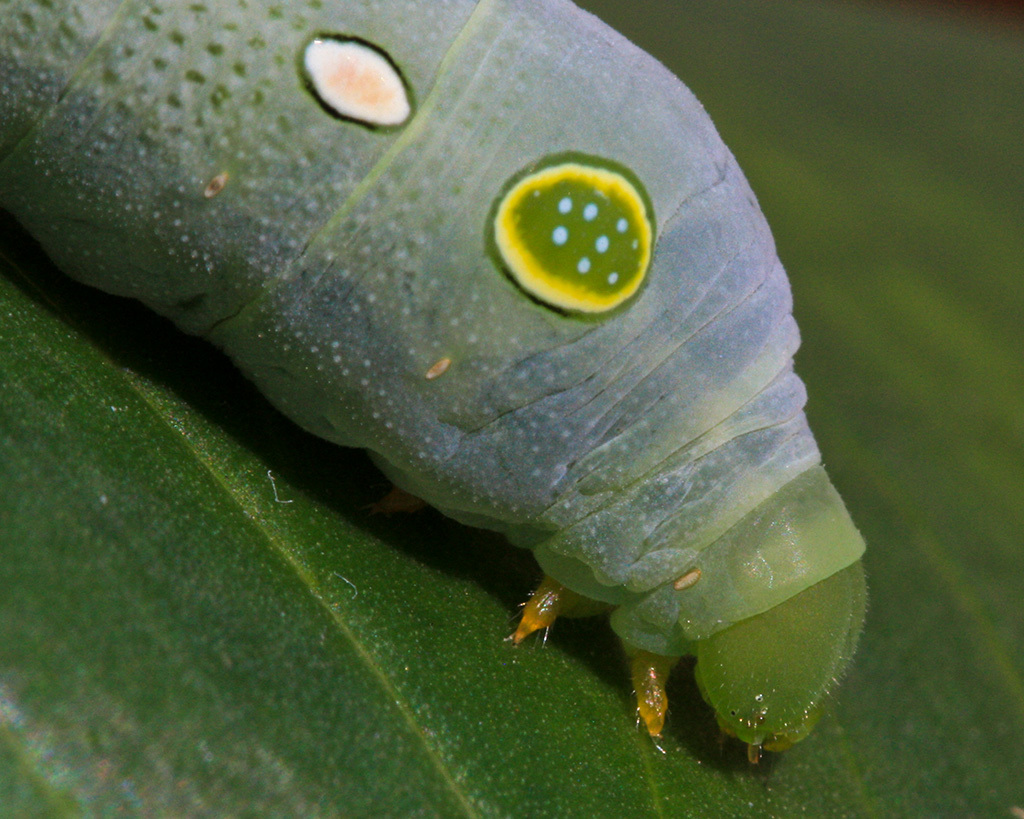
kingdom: Animalia
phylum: Arthropoda
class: Insecta
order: Lepidoptera
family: Sphingidae
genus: Hippotion
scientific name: Hippotion eson
